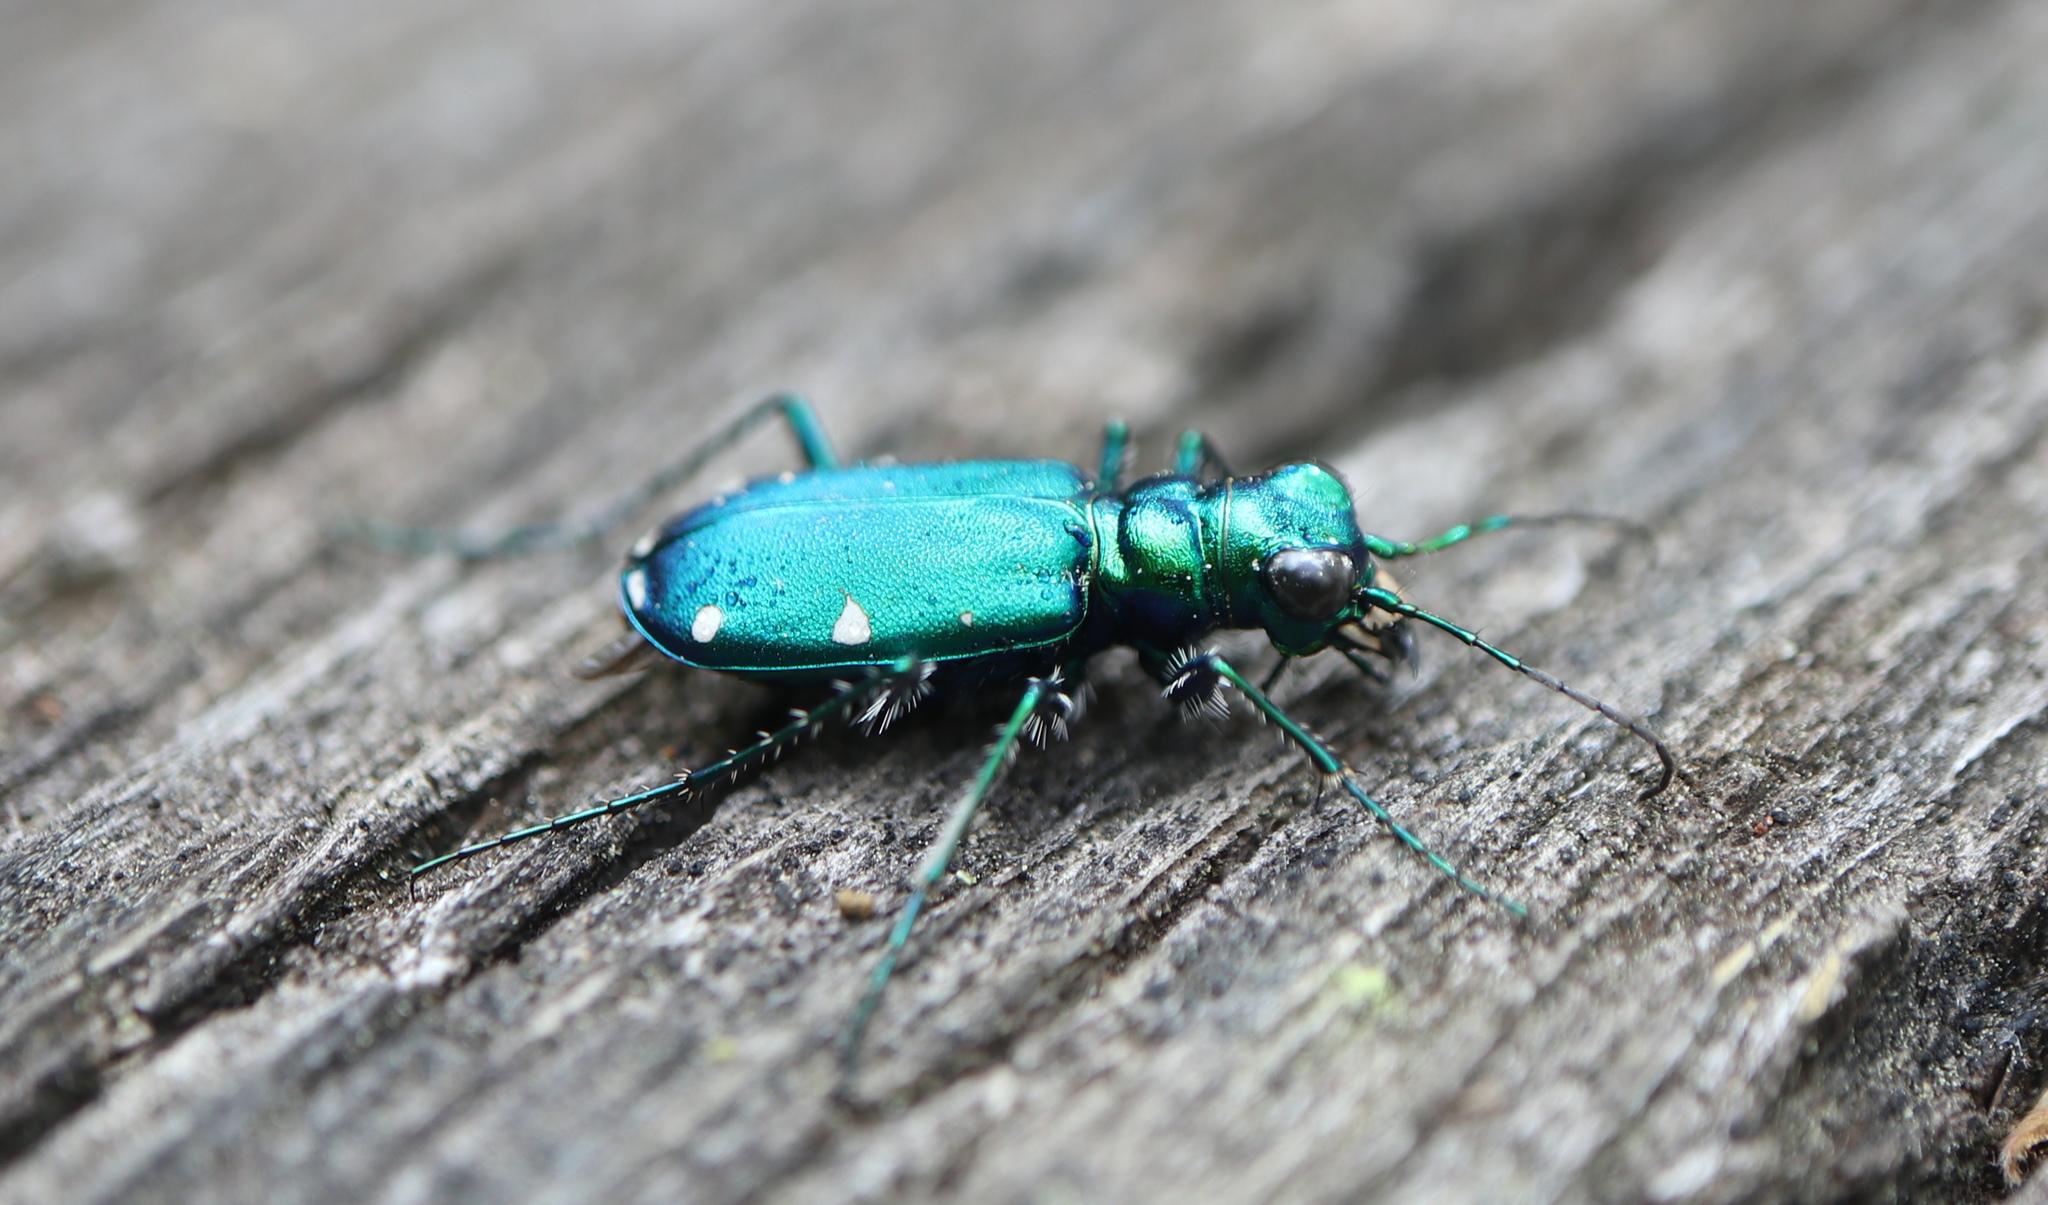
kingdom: Animalia
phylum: Arthropoda
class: Insecta
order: Coleoptera
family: Carabidae
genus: Cicindela
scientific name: Cicindela sexguttata
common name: Six-spotted tiger beetle
